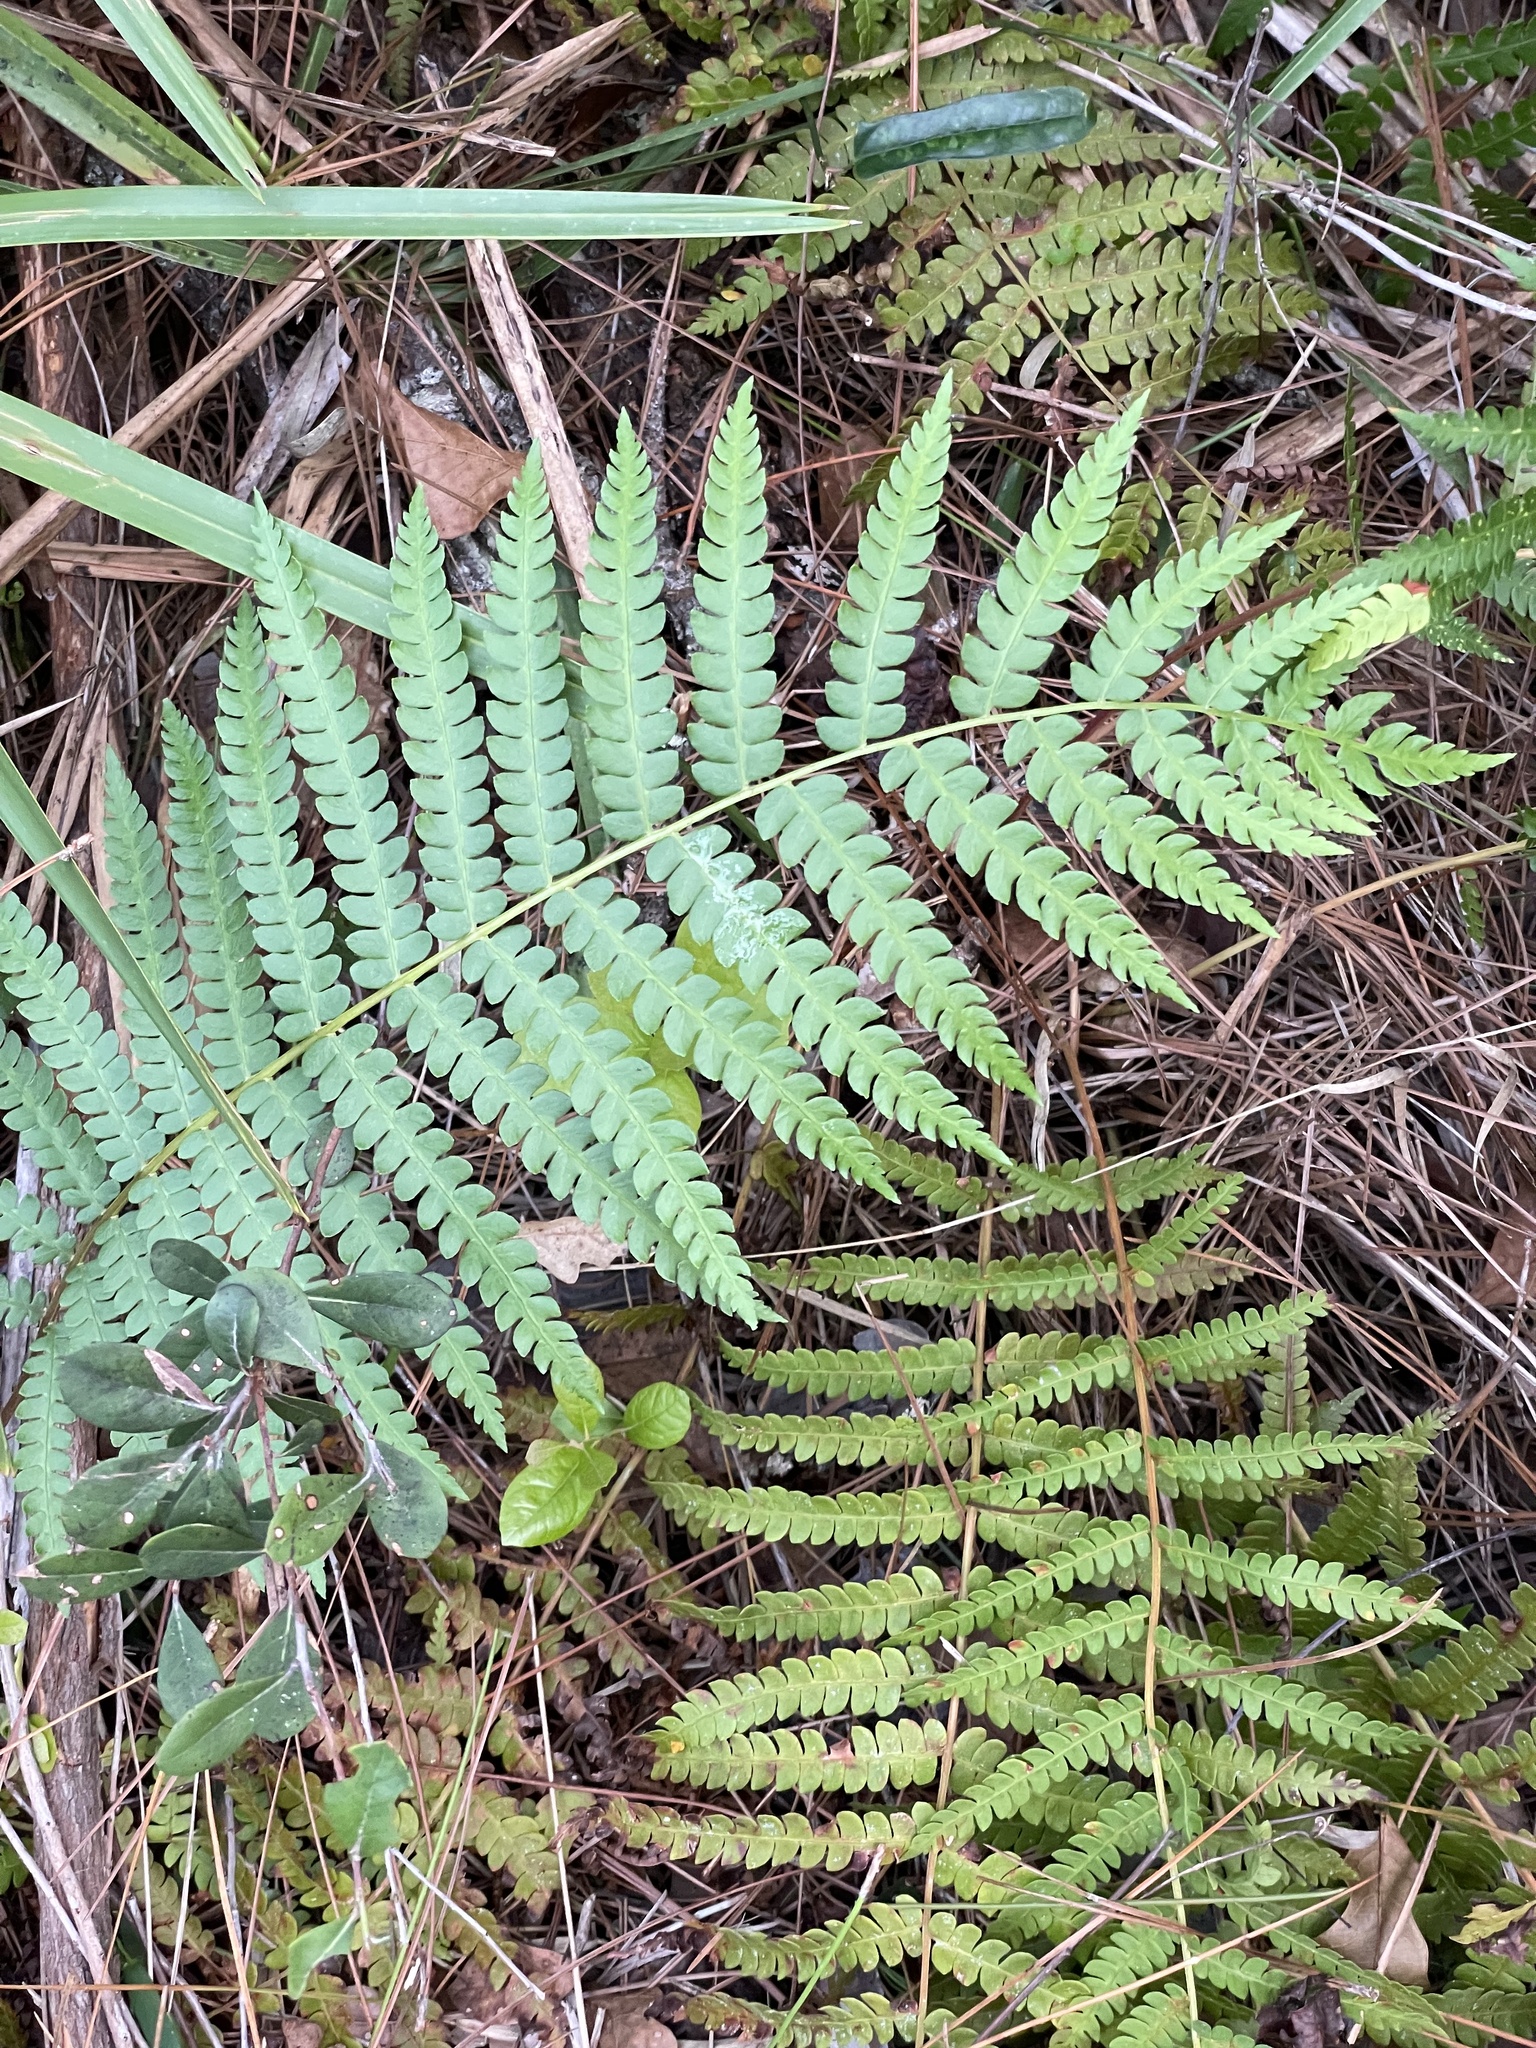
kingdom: Plantae
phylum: Tracheophyta
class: Polypodiopsida
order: Osmundales
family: Osmundaceae
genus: Osmundastrum
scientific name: Osmundastrum cinnamomeum
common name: Cinnamon fern
